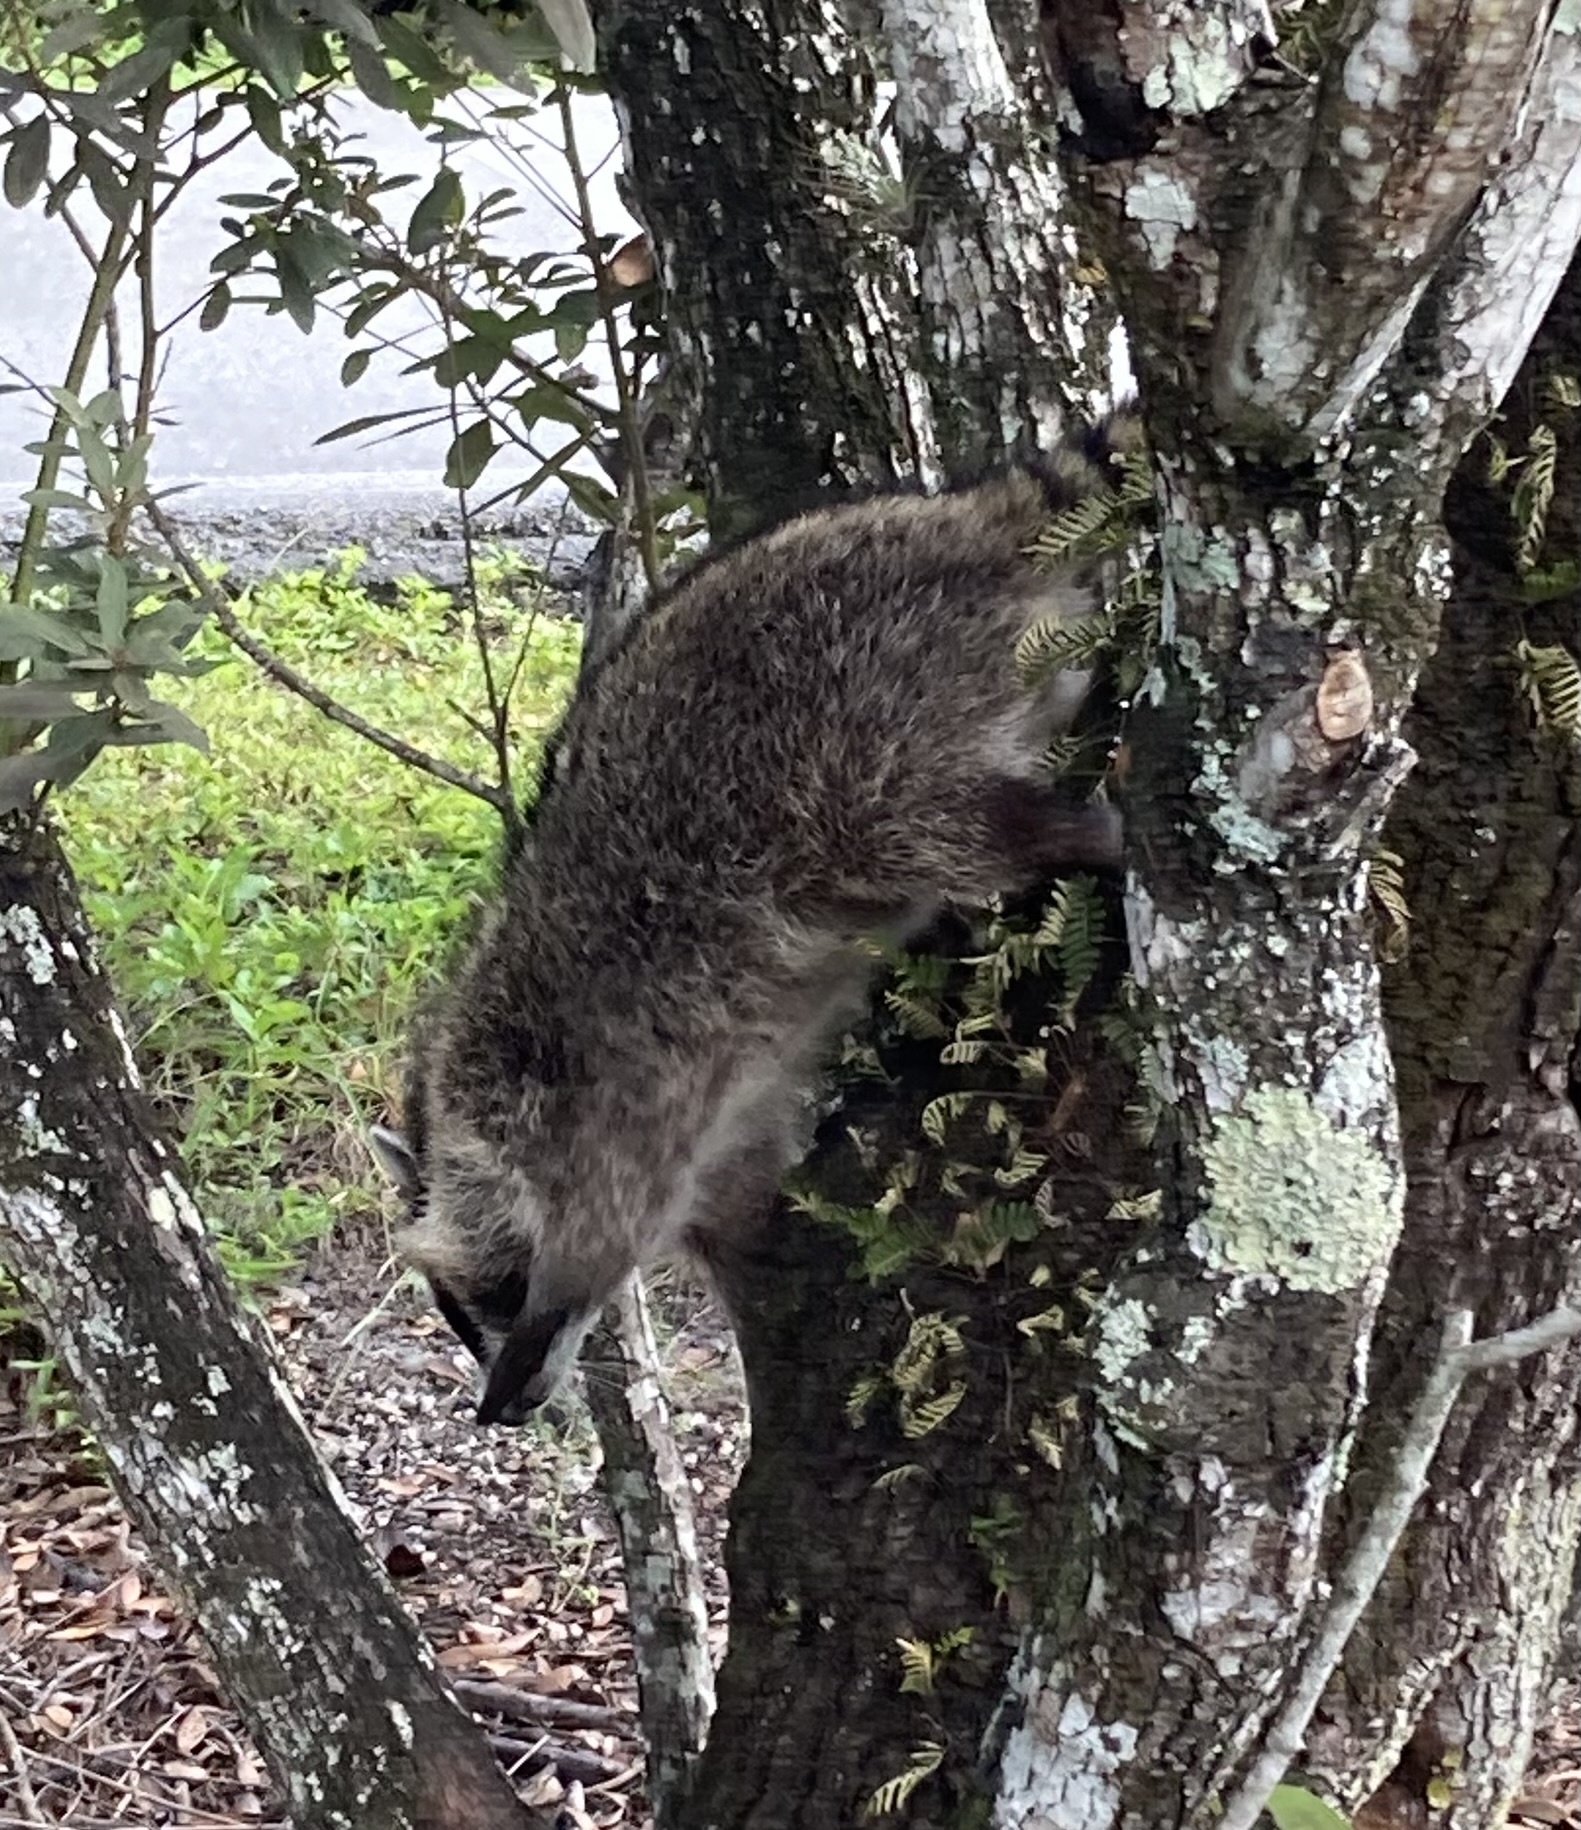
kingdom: Animalia
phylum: Chordata
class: Mammalia
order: Carnivora
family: Procyonidae
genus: Procyon
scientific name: Procyon lotor
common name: Raccoon
